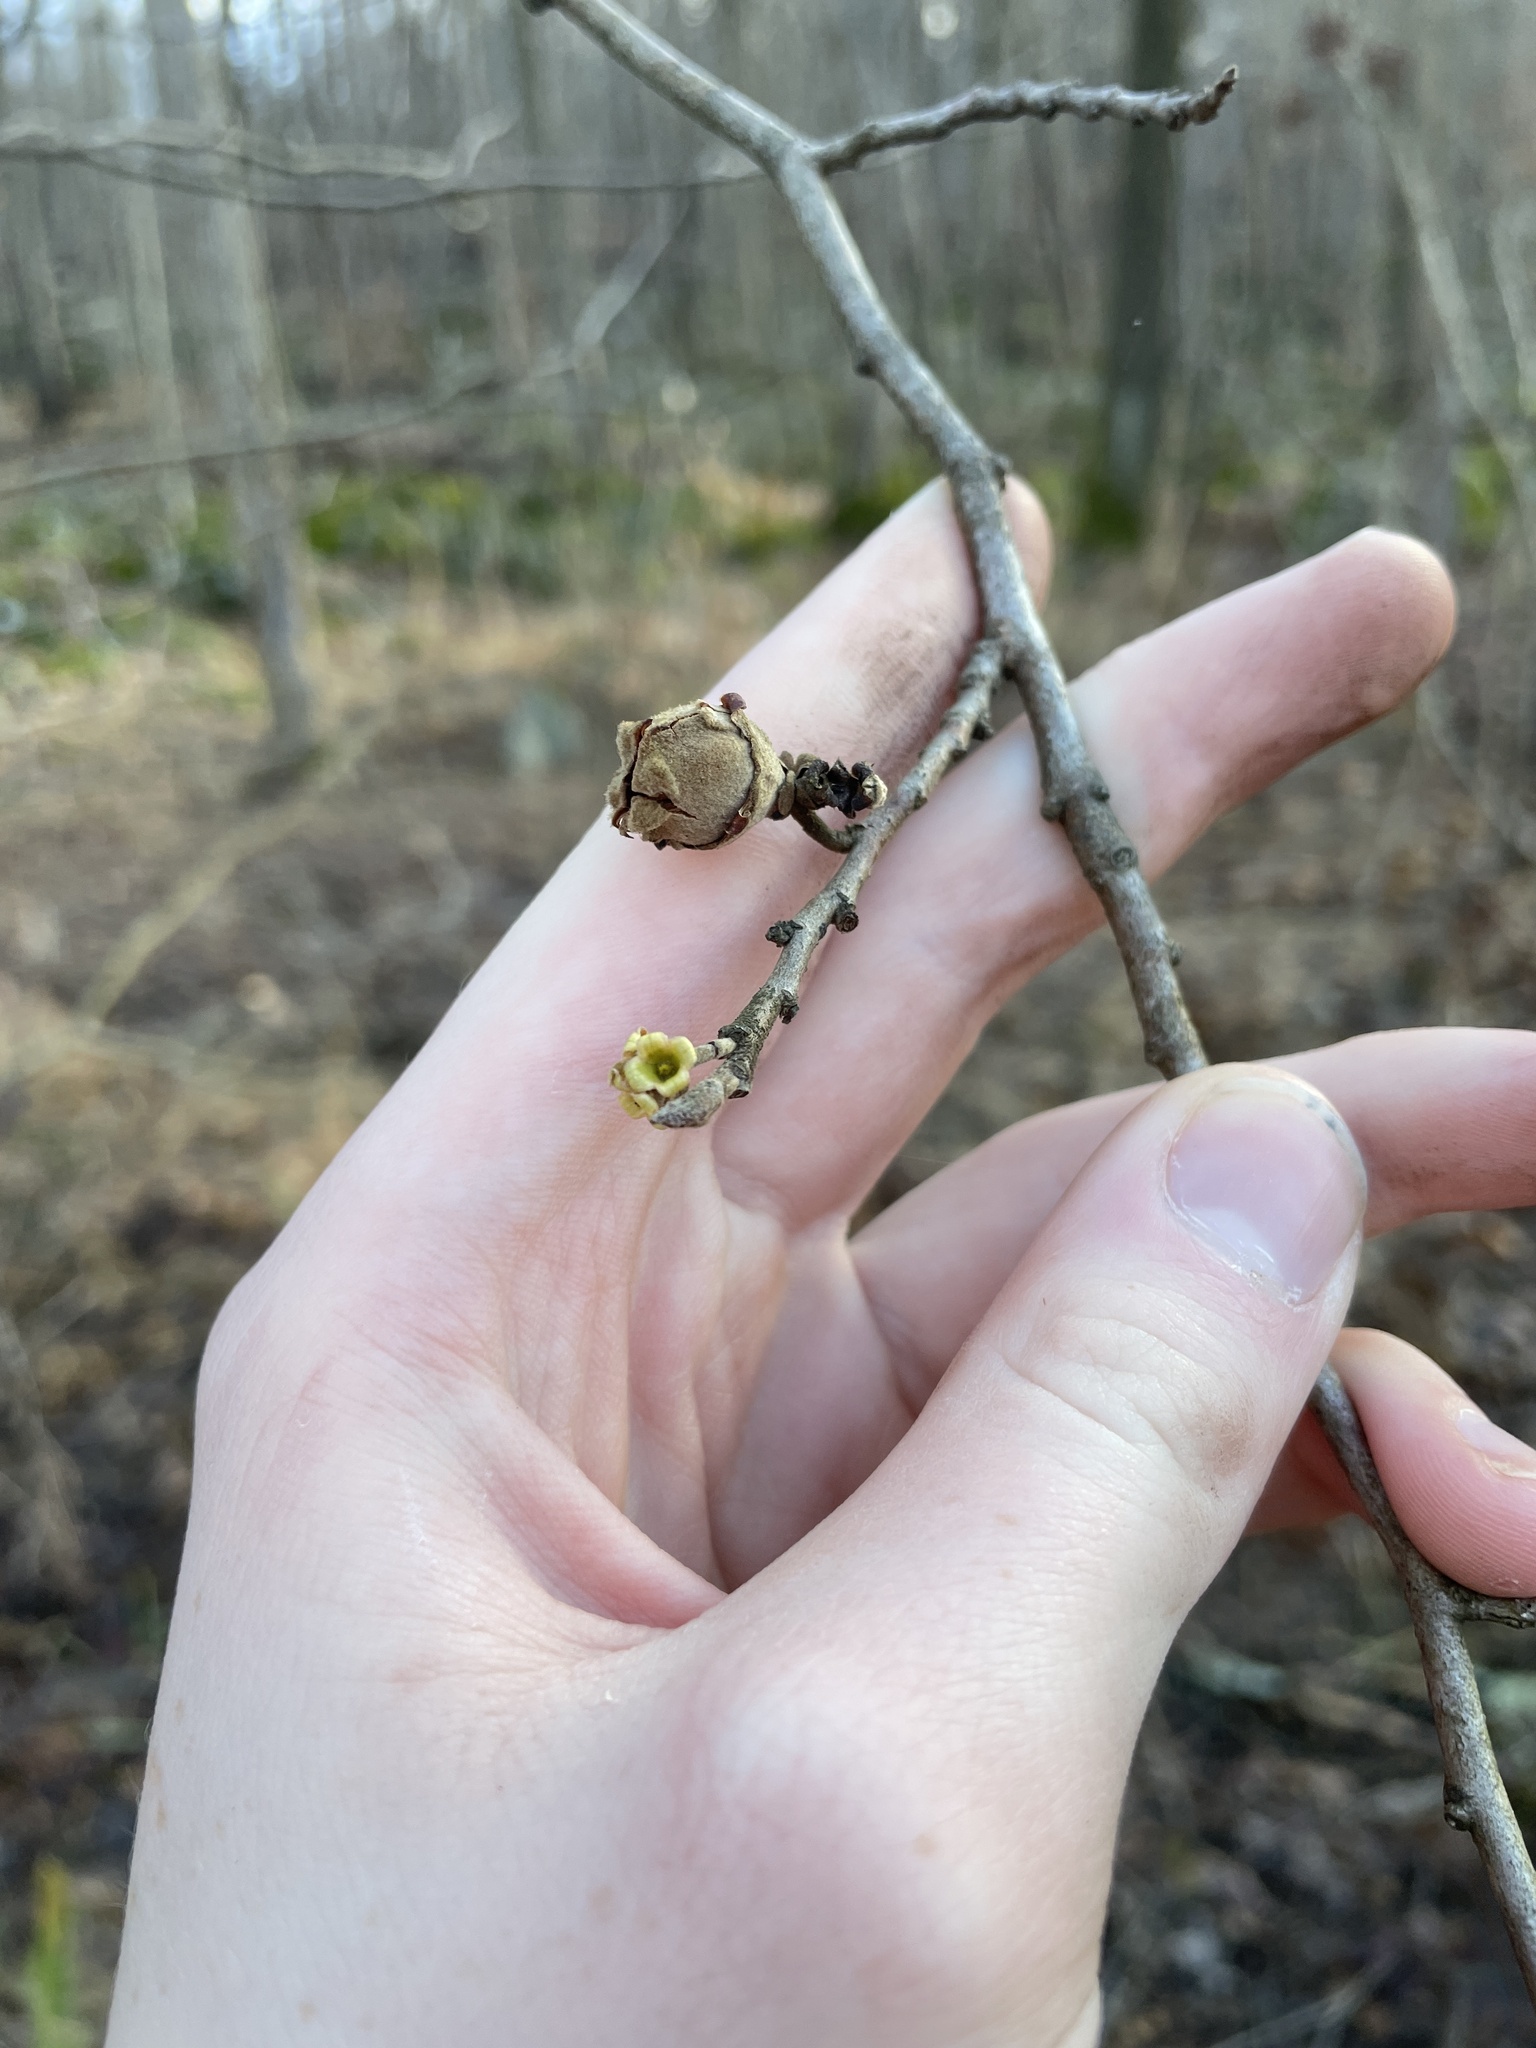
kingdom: Plantae
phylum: Tracheophyta
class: Magnoliopsida
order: Saxifragales
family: Hamamelidaceae
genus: Hamamelis
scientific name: Hamamelis virginiana
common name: Witch-hazel
